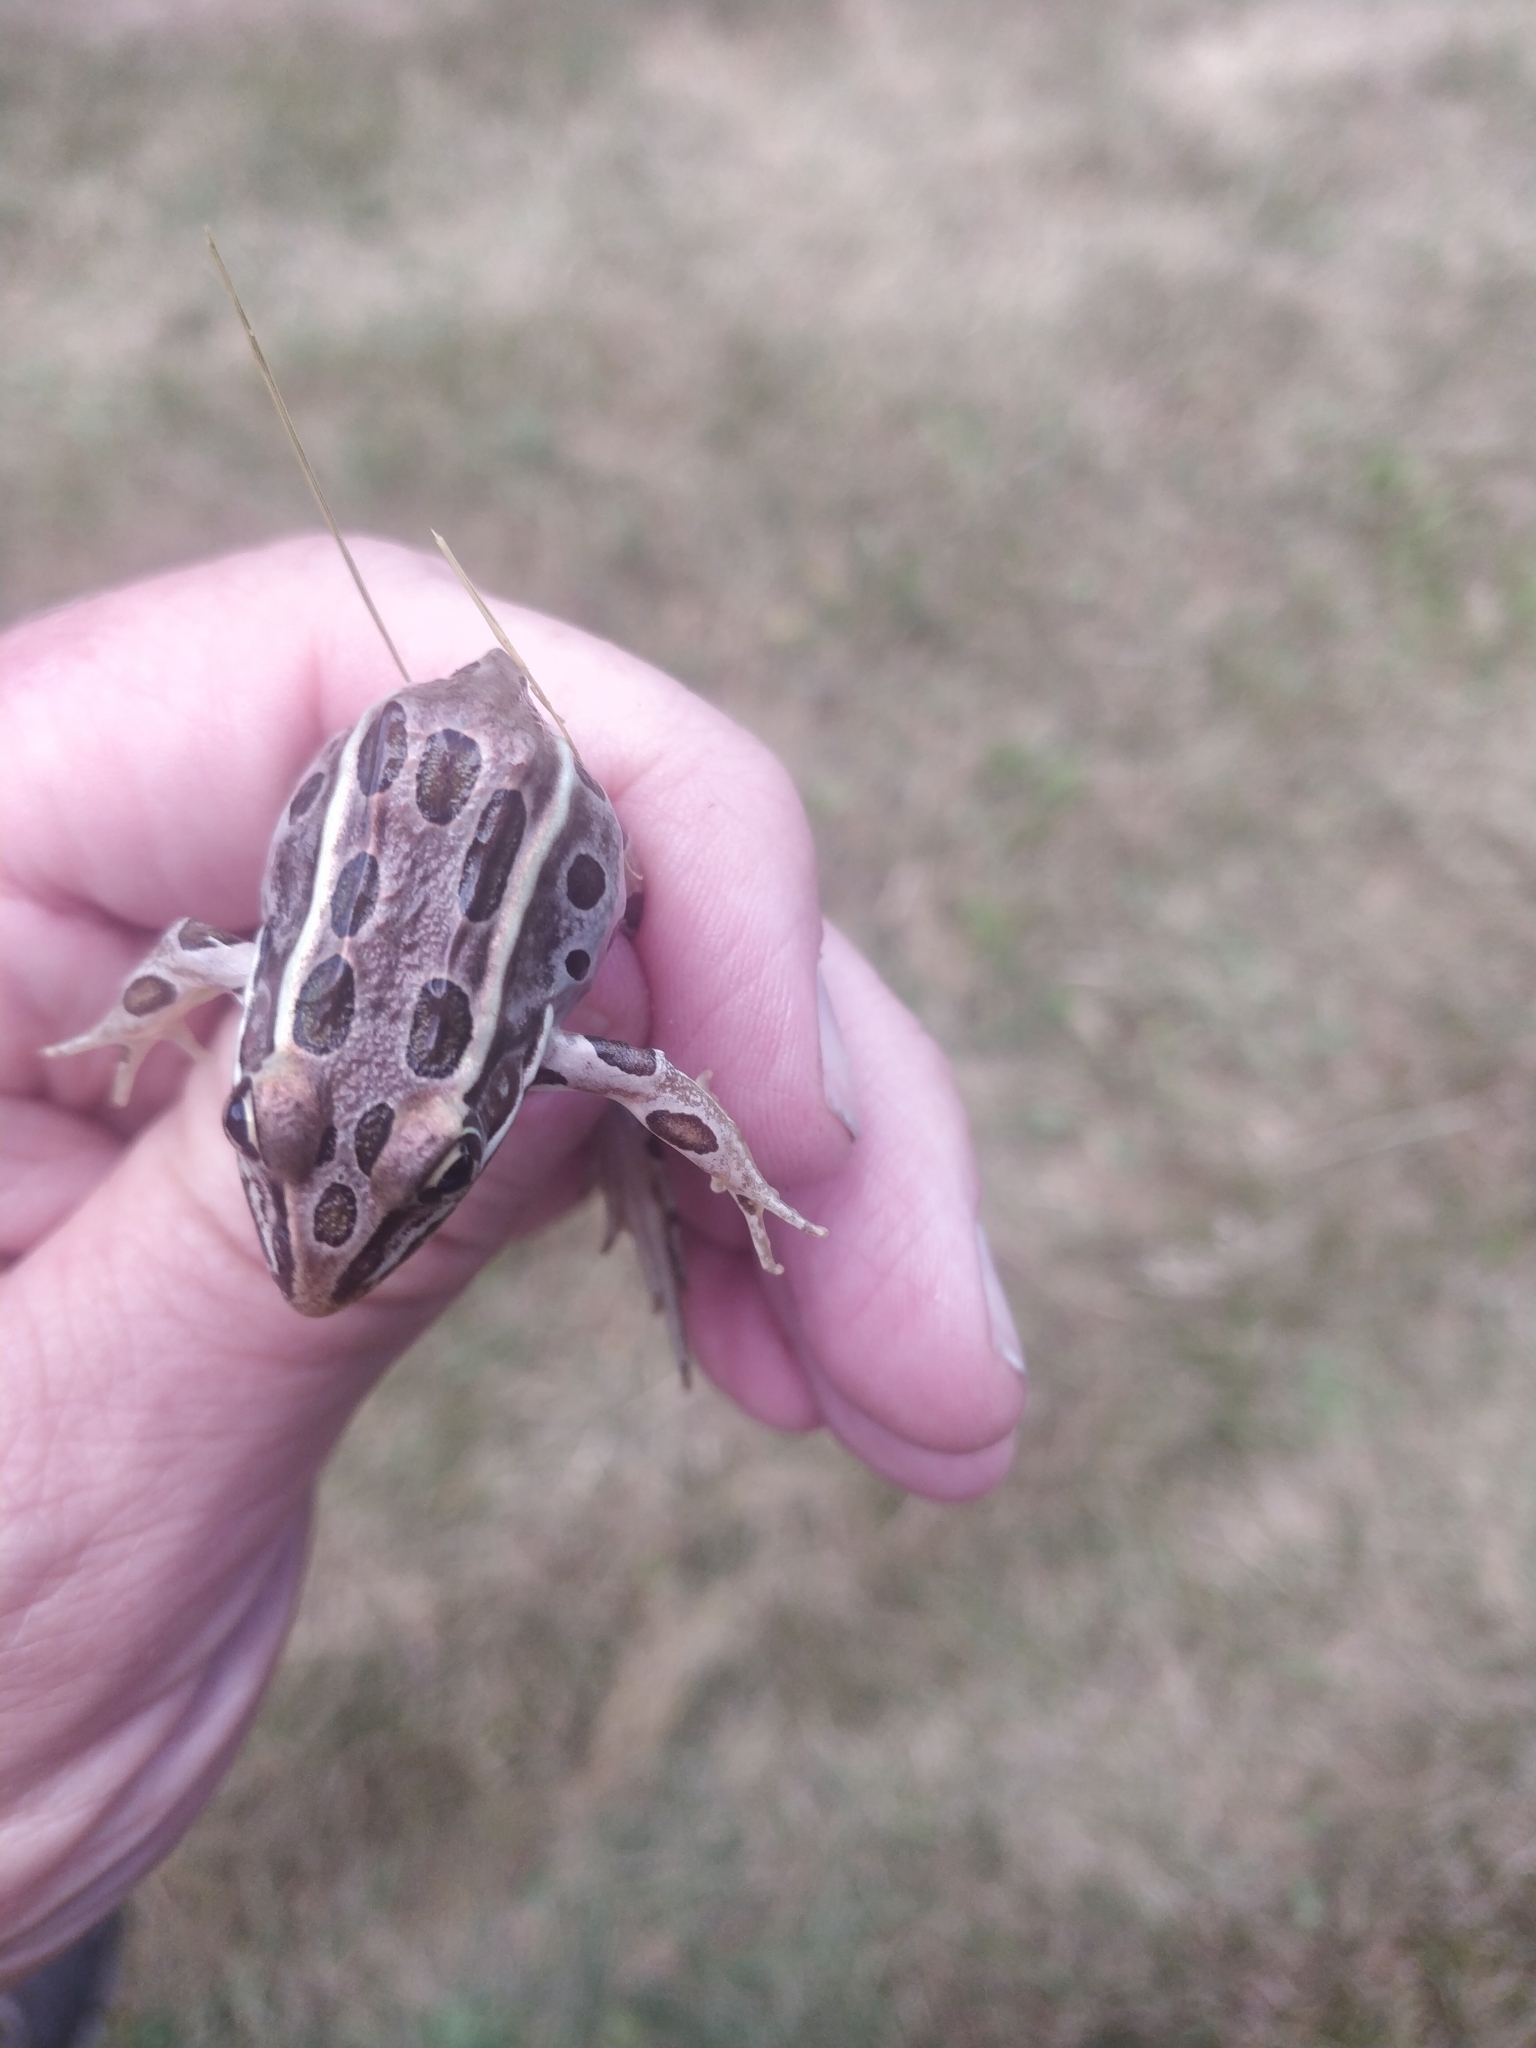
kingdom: Animalia
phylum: Chordata
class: Amphibia
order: Anura
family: Ranidae
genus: Lithobates
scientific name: Lithobates pipiens
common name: Northern leopard frog
